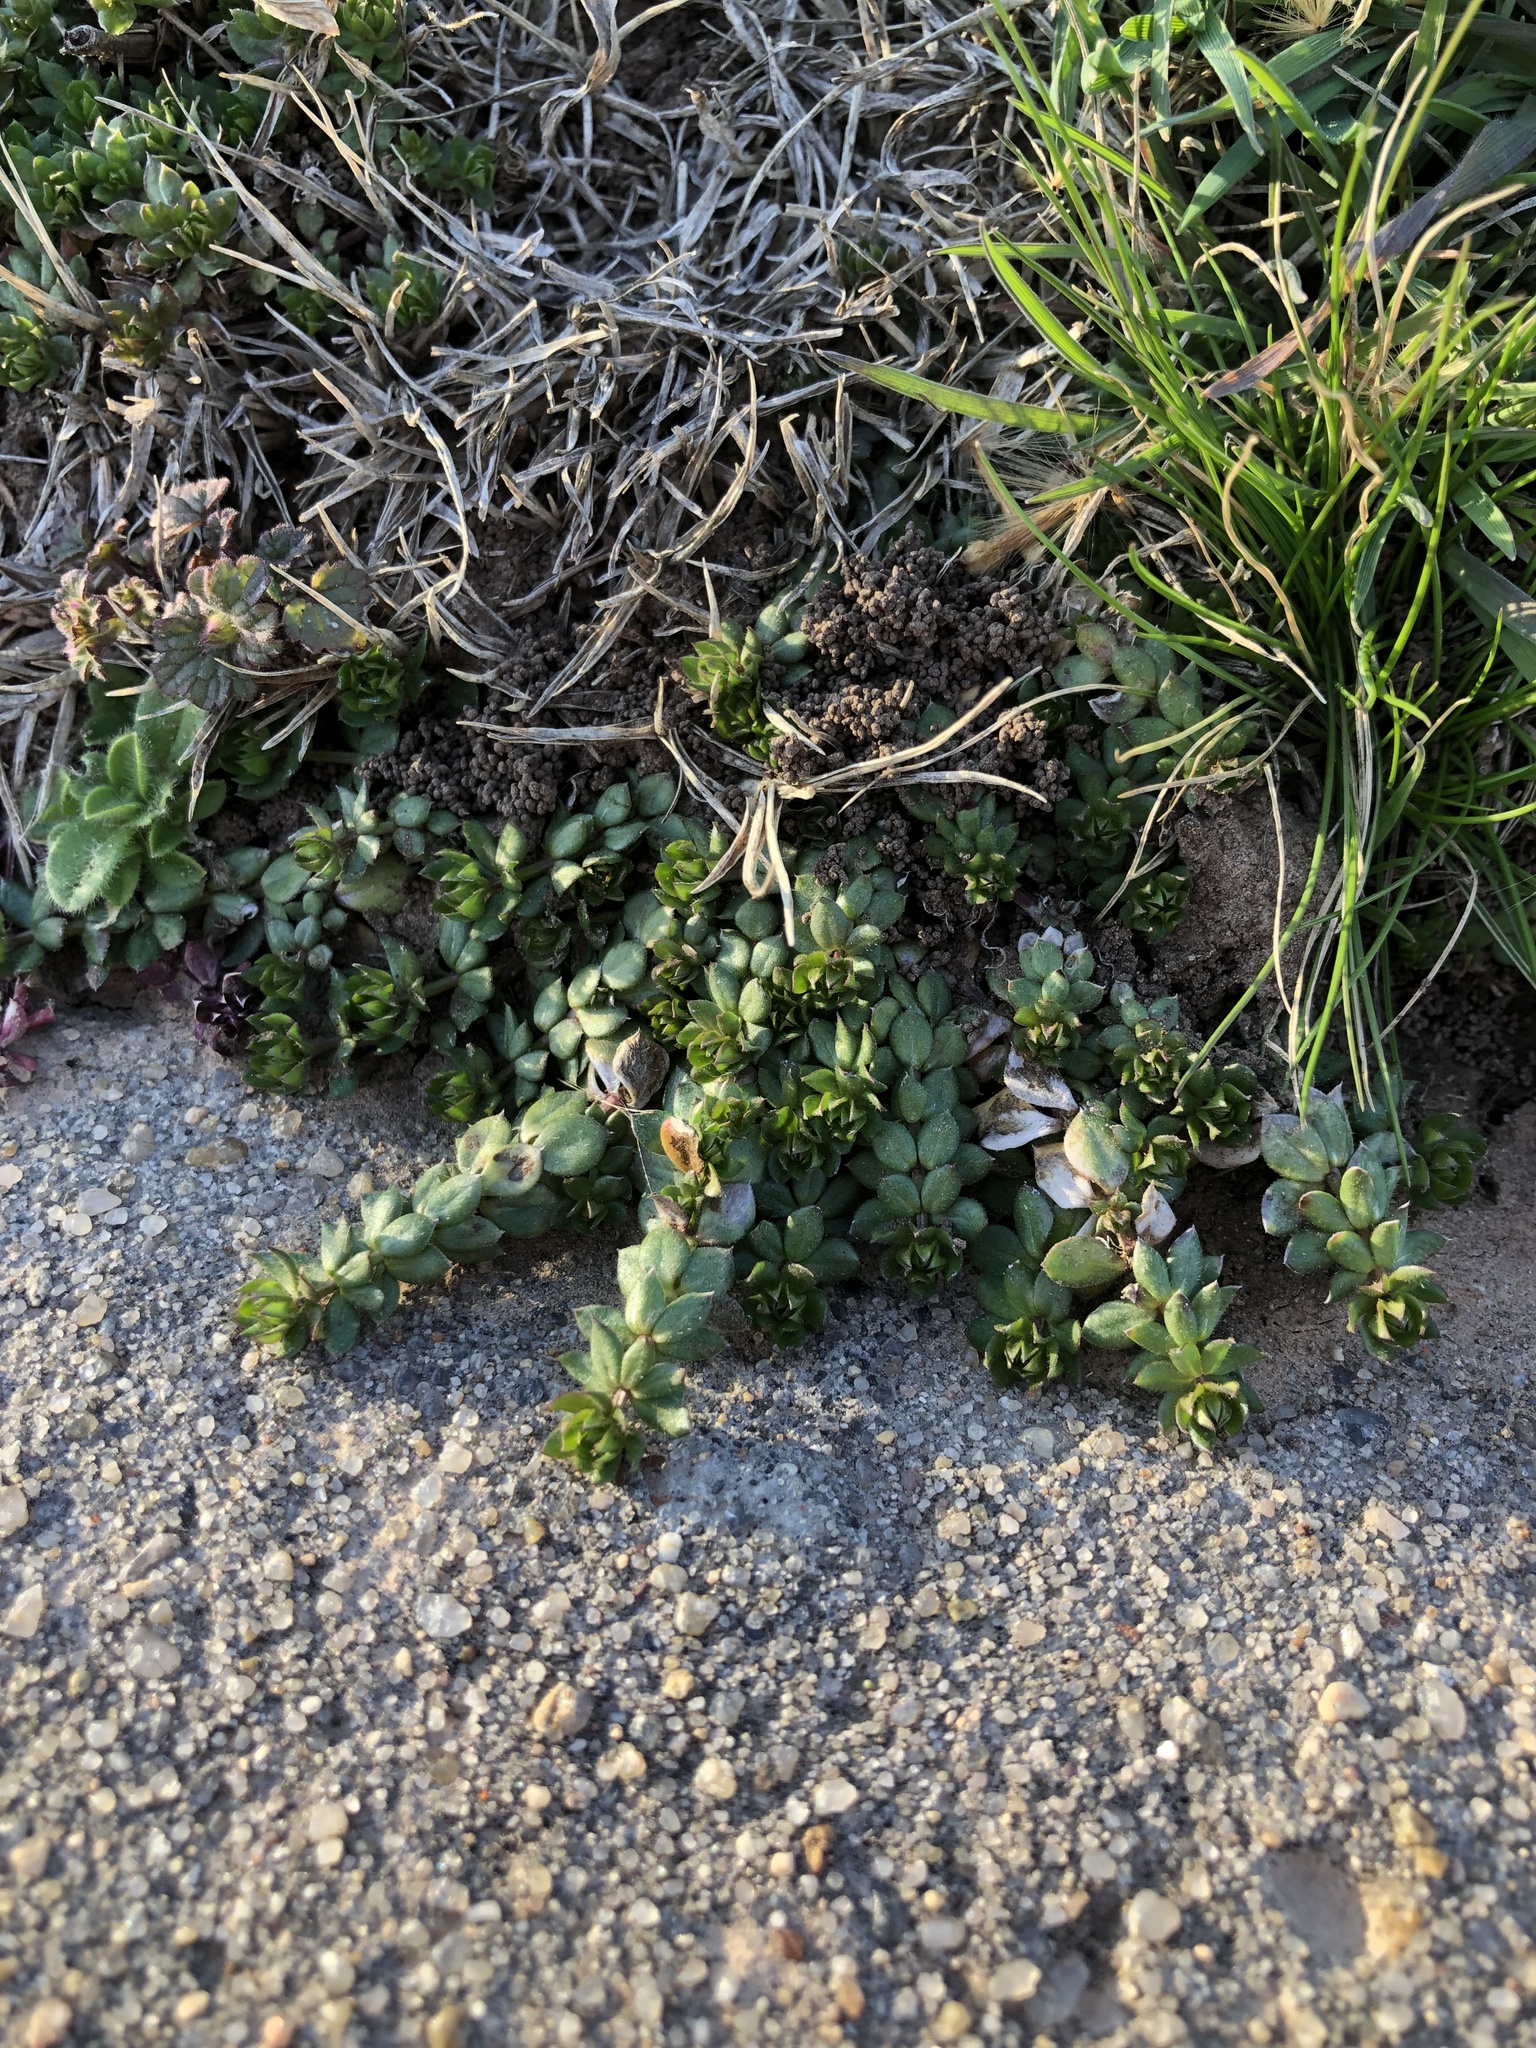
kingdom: Plantae
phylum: Tracheophyta
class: Magnoliopsida
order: Gentianales
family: Rubiaceae
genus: Sherardia
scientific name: Sherardia arvensis
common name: Field madder
